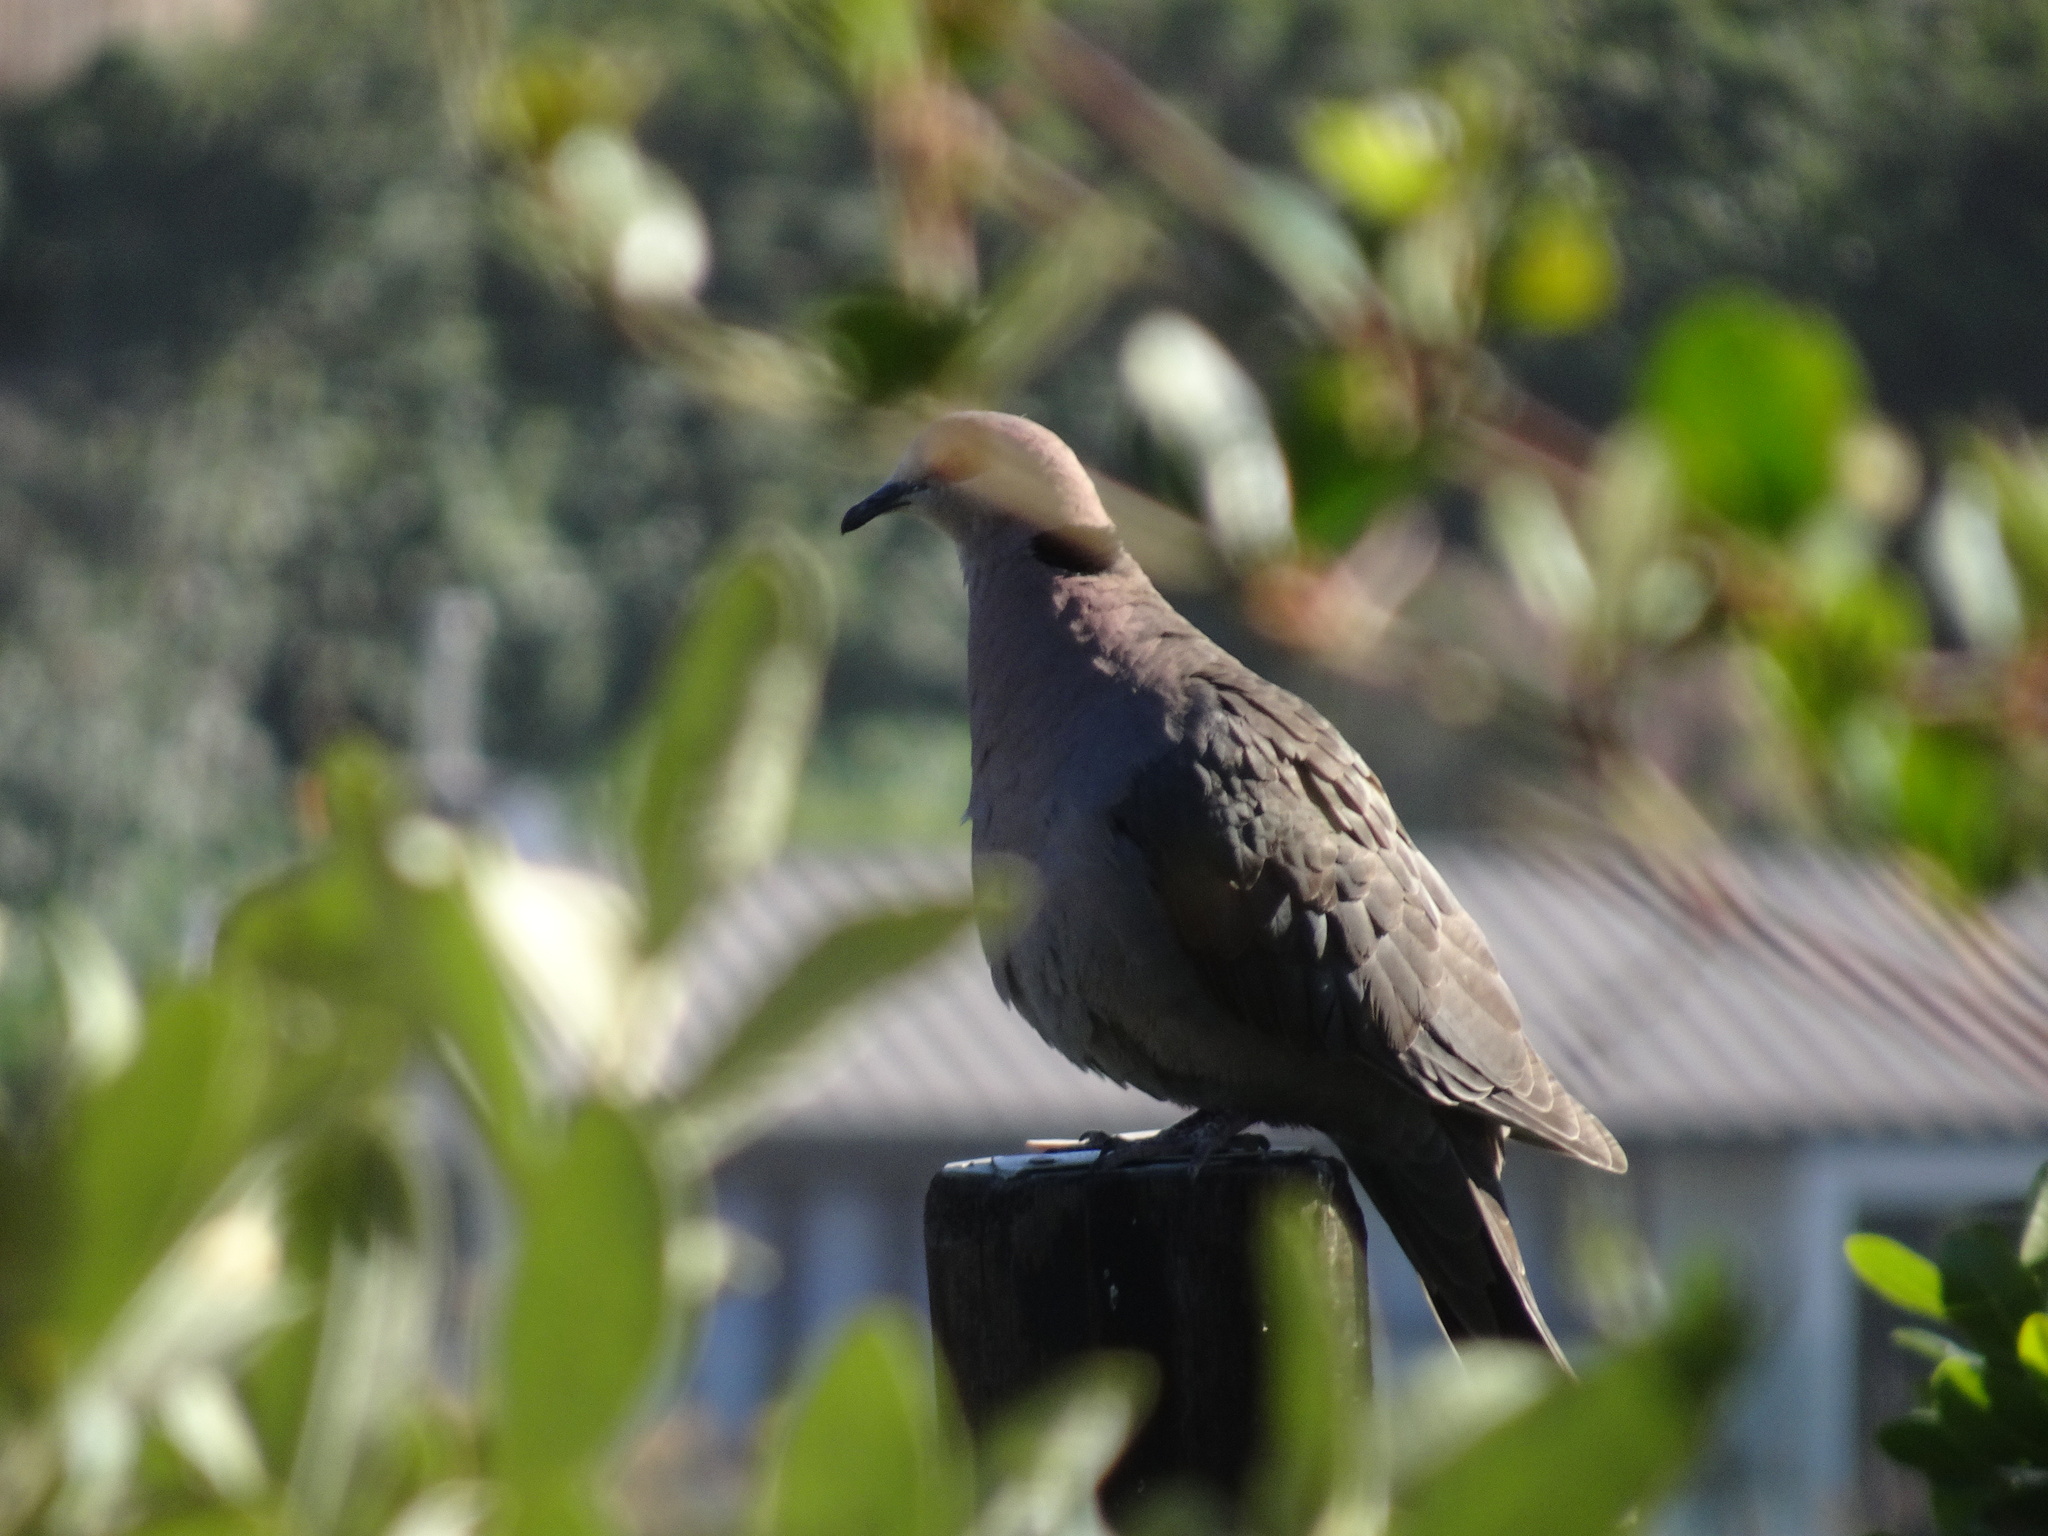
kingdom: Animalia
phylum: Chordata
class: Aves
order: Columbiformes
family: Columbidae
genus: Streptopelia
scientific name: Streptopelia semitorquata
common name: Red-eyed dove
